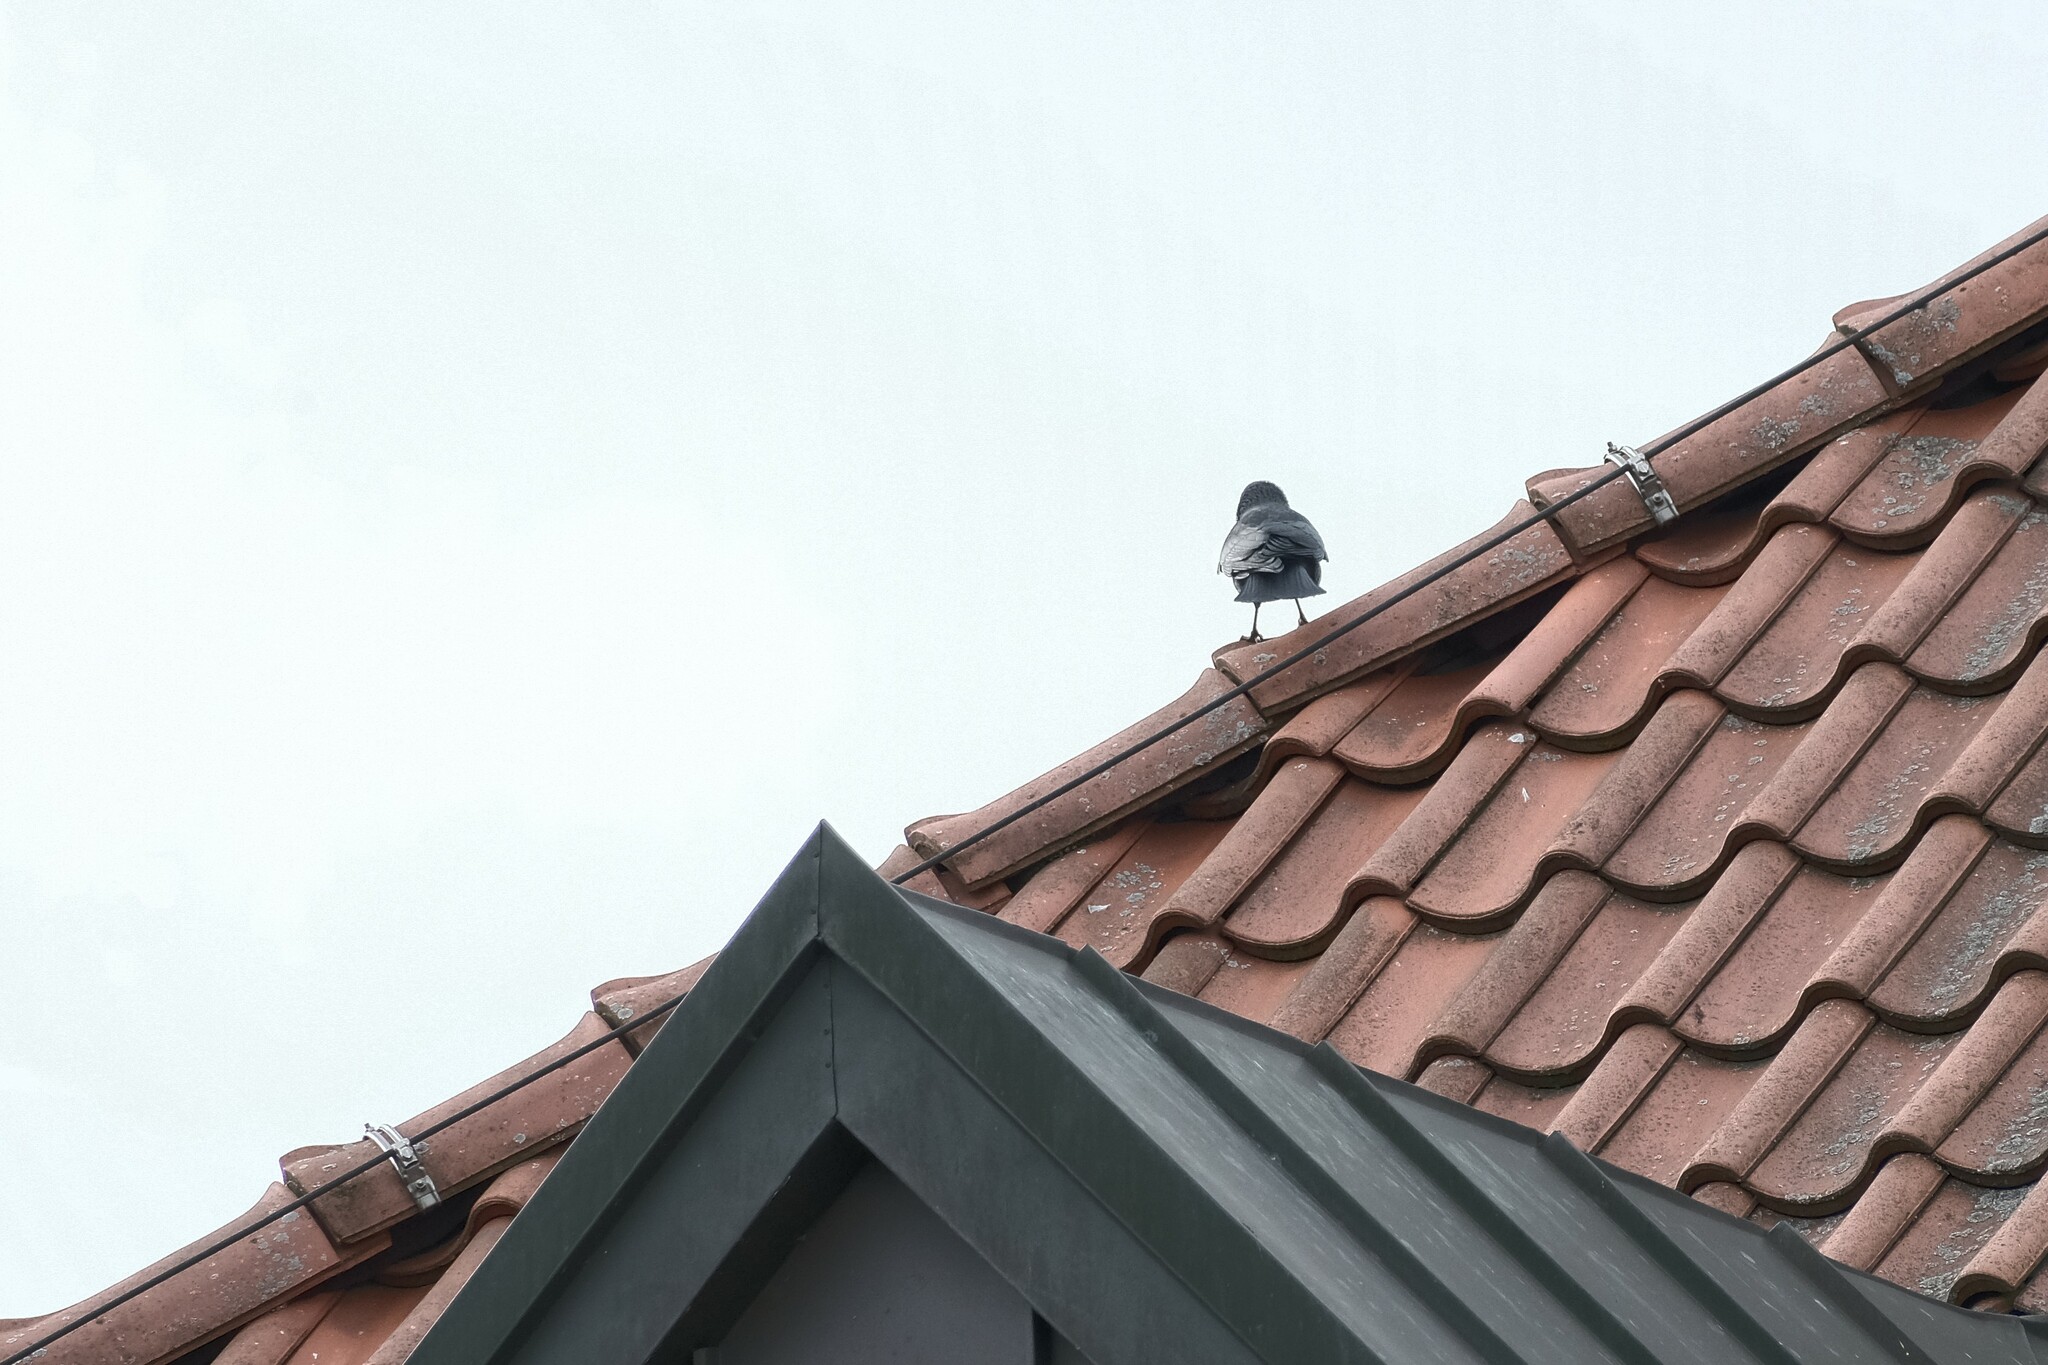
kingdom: Animalia
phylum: Chordata
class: Aves
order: Passeriformes
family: Corvidae
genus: Corvus
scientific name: Corvus
